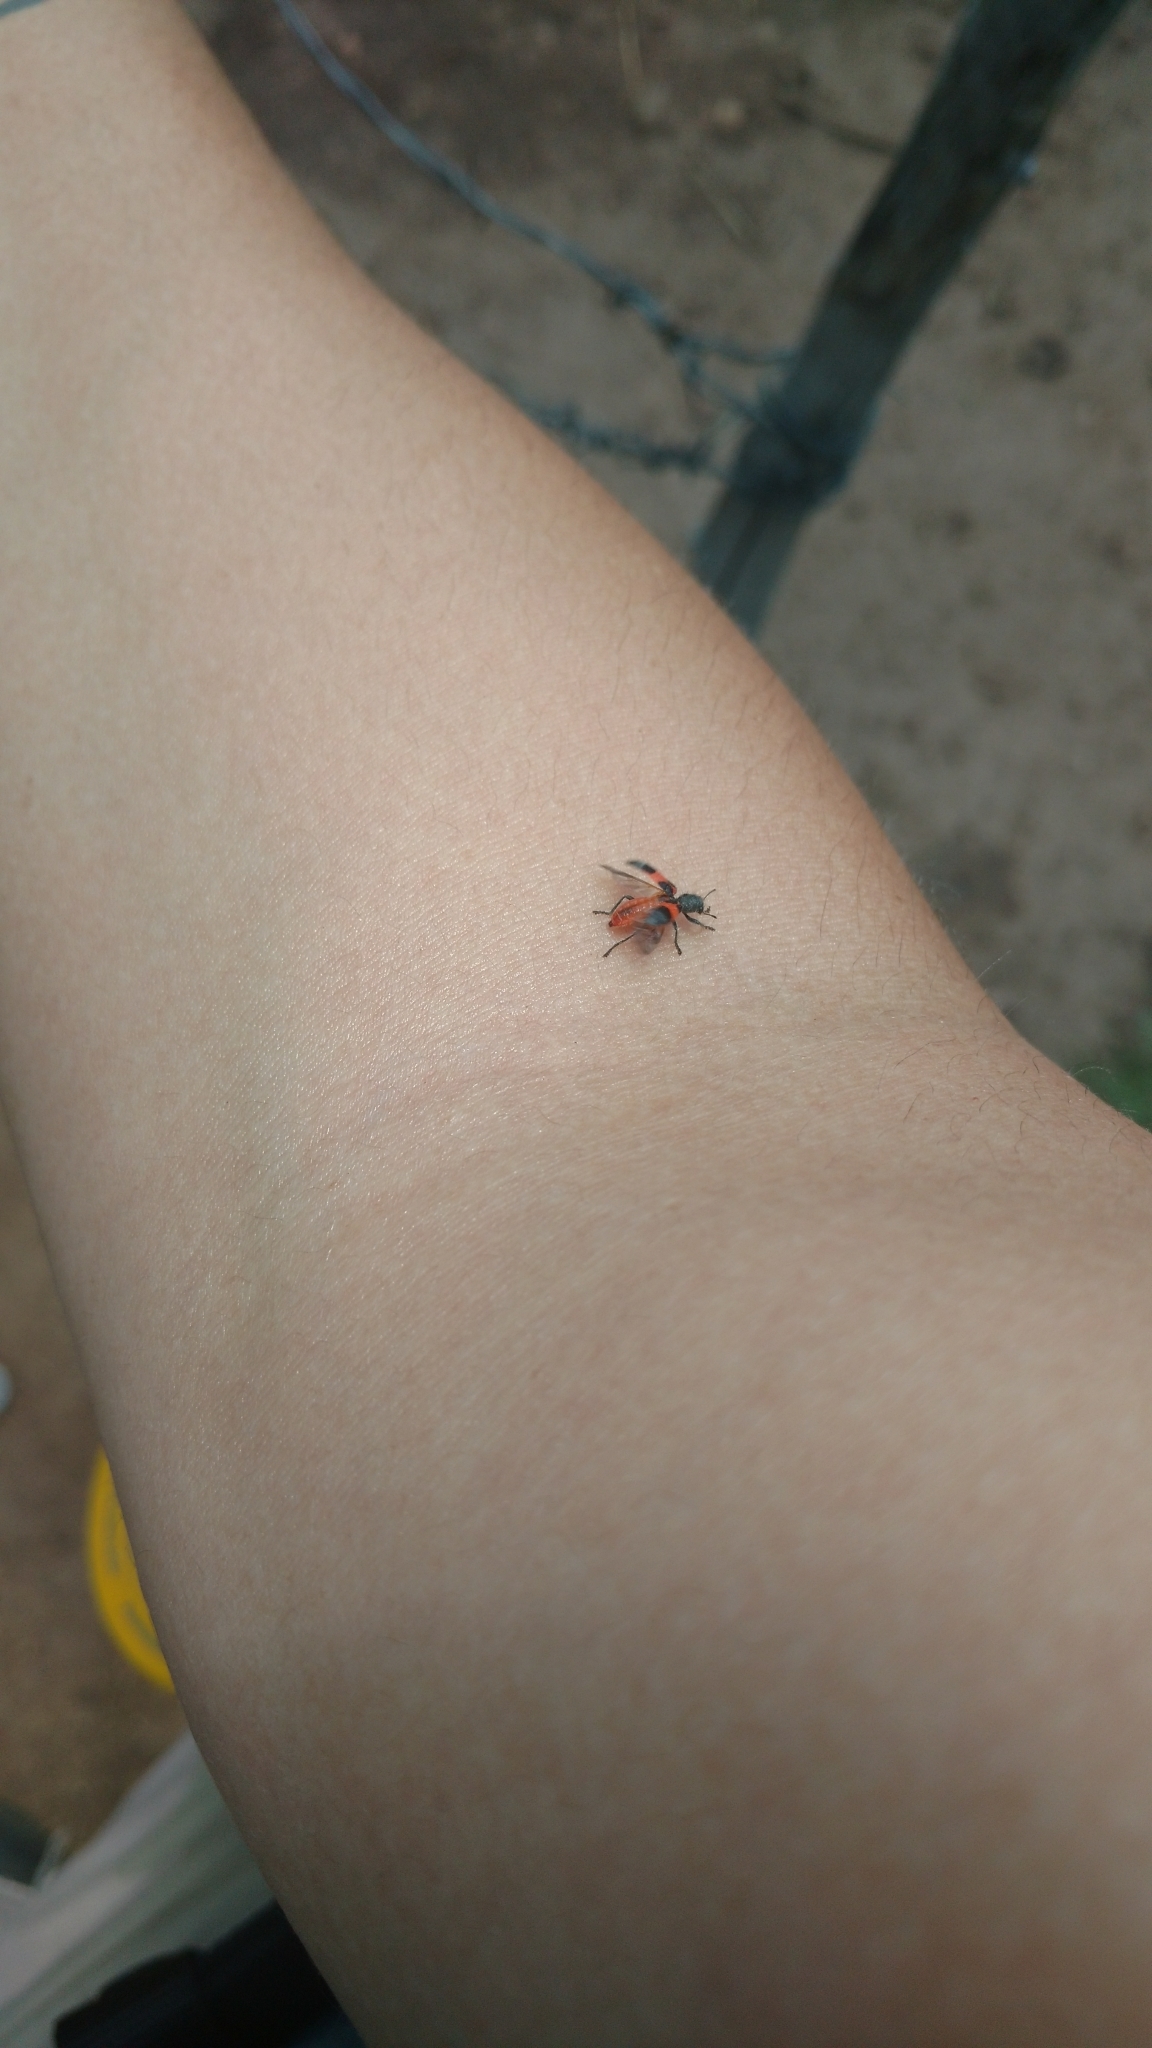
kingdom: Animalia
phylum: Arthropoda
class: Insecta
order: Coleoptera
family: Cleridae
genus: Enoclerus
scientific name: Enoclerus eximius
